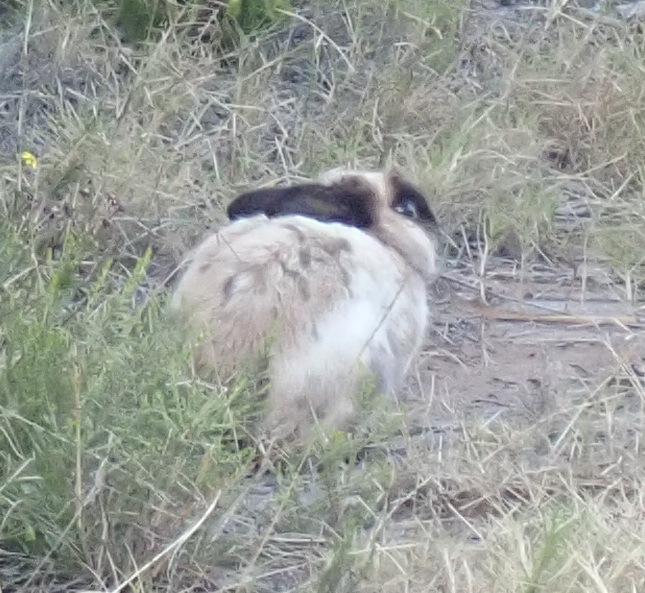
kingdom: Animalia
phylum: Chordata
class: Mammalia
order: Lagomorpha
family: Leporidae
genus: Oryctolagus
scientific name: Oryctolagus cuniculus
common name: European rabbit
